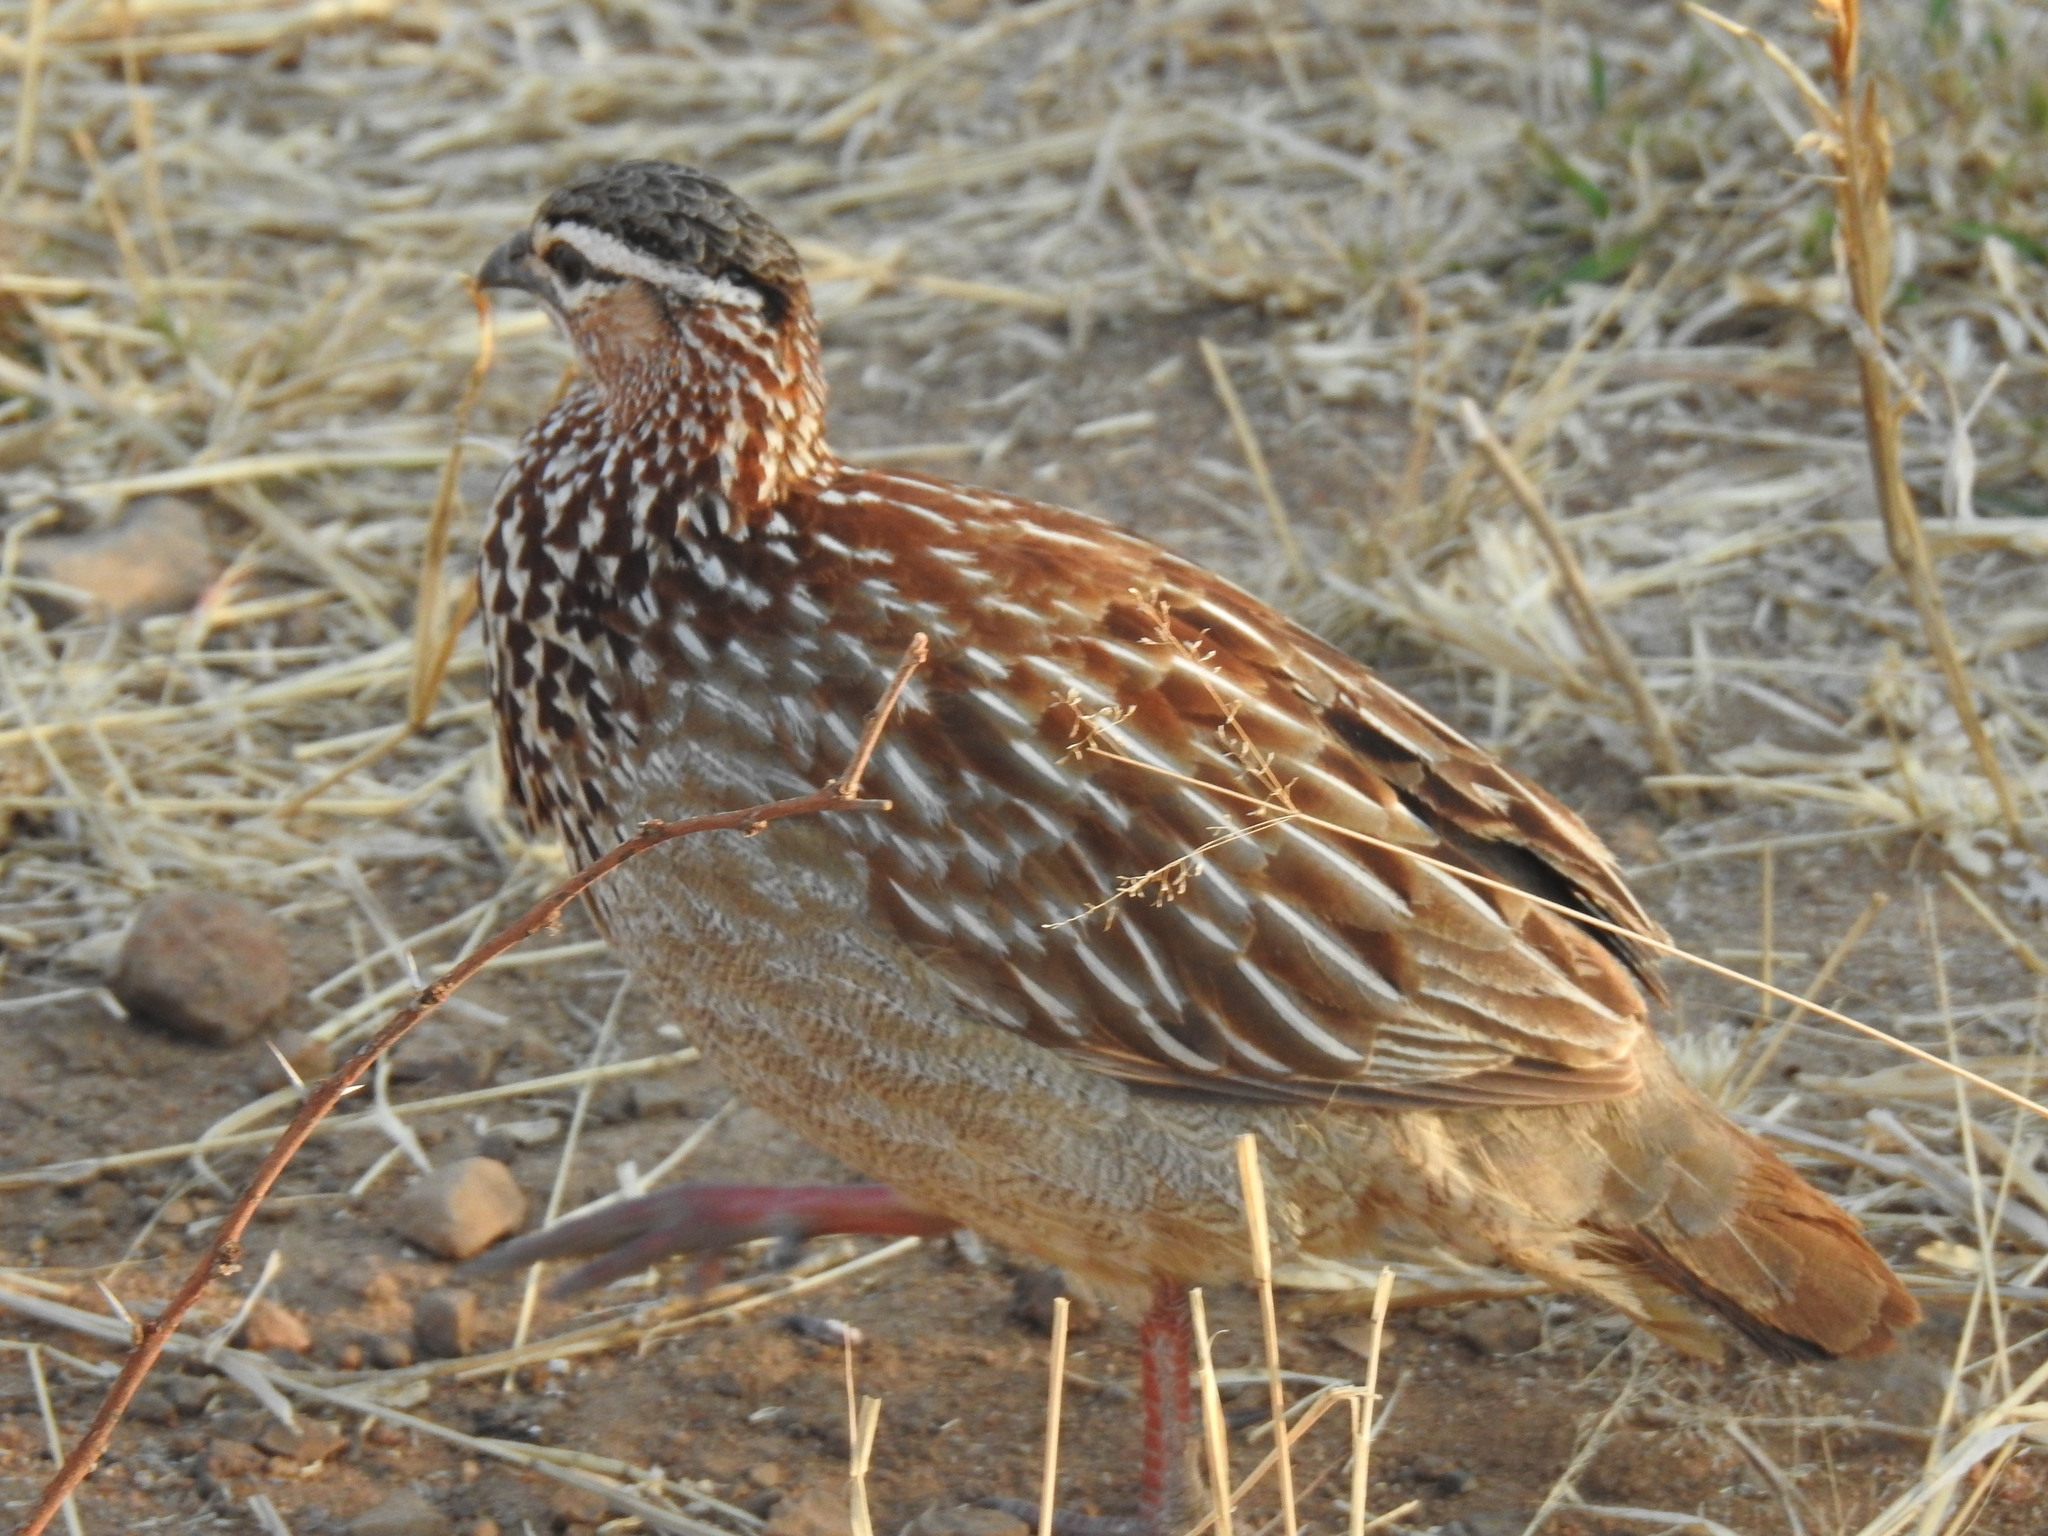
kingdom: Animalia
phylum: Chordata
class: Aves
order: Galliformes
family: Phasianidae
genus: Ortygornis
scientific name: Ortygornis sephaena
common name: Crested francolin
